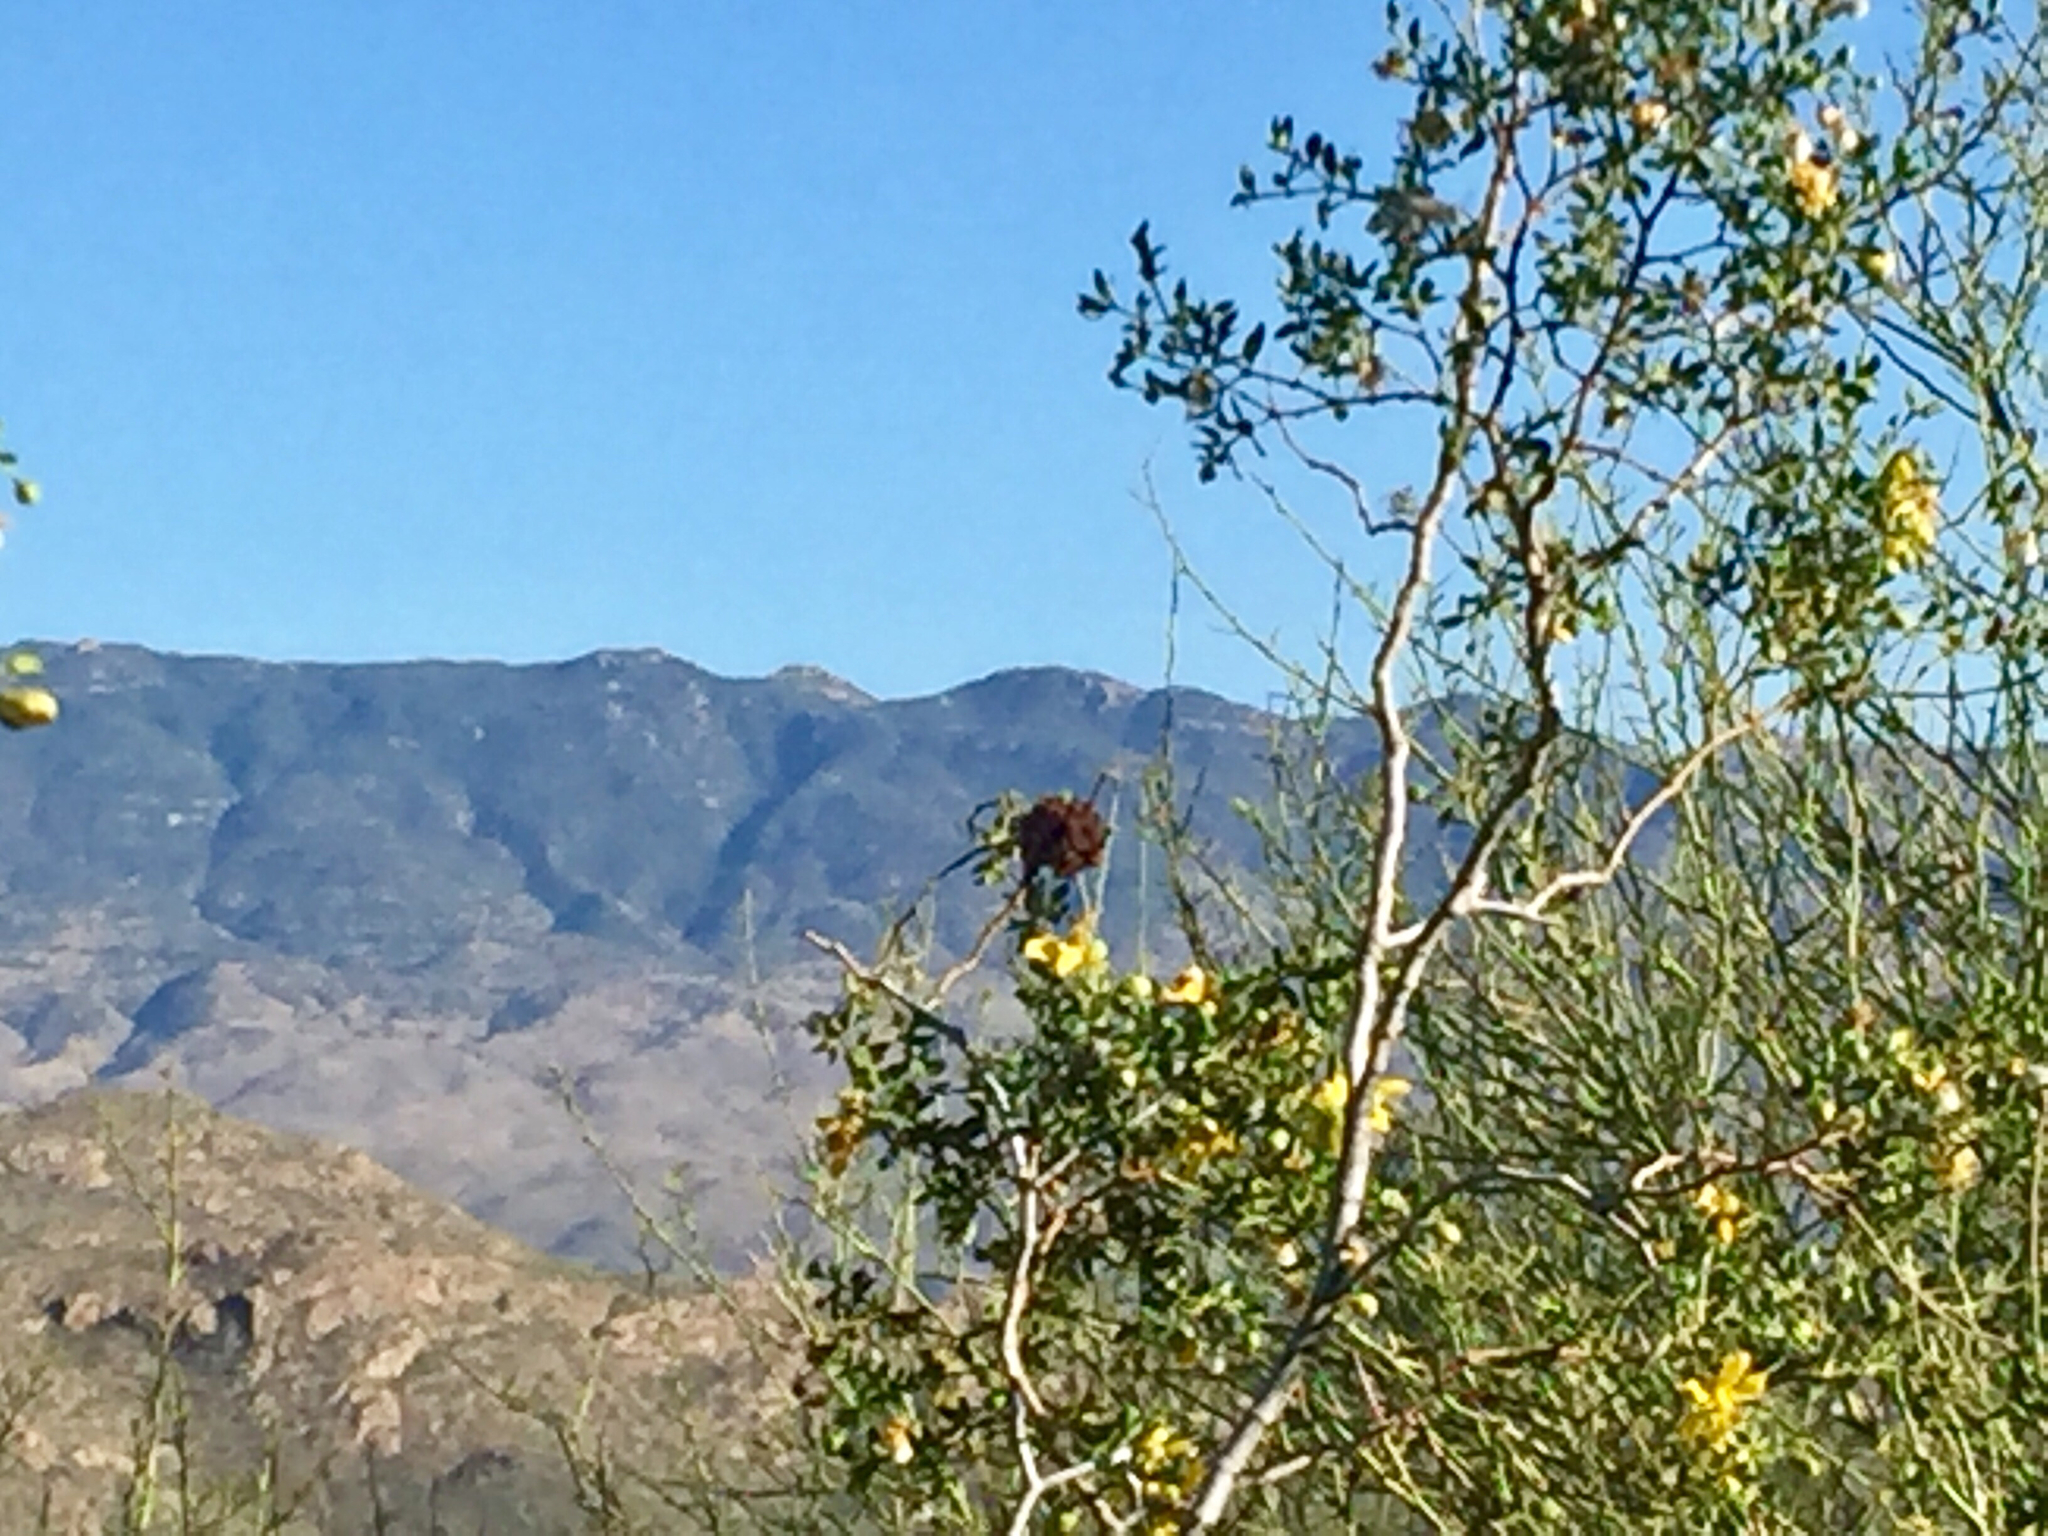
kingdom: Animalia
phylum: Arthropoda
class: Insecta
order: Diptera
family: Cecidomyiidae
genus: Asphondylia
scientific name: Asphondylia auripila
